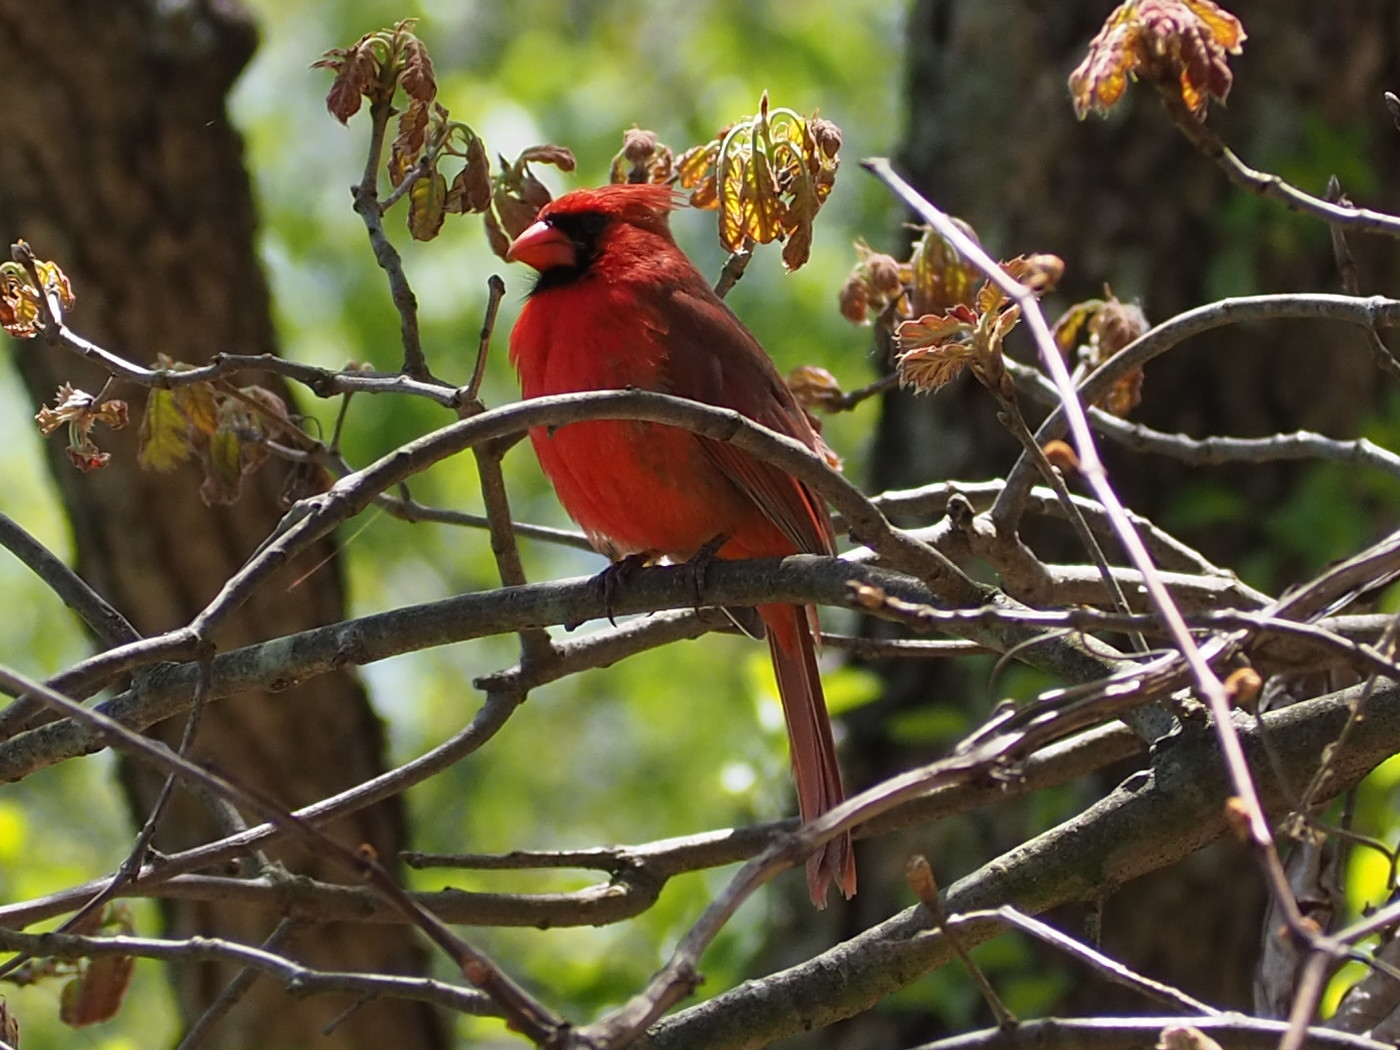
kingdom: Animalia
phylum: Chordata
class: Aves
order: Passeriformes
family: Cardinalidae
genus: Cardinalis
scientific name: Cardinalis cardinalis
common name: Northern cardinal
